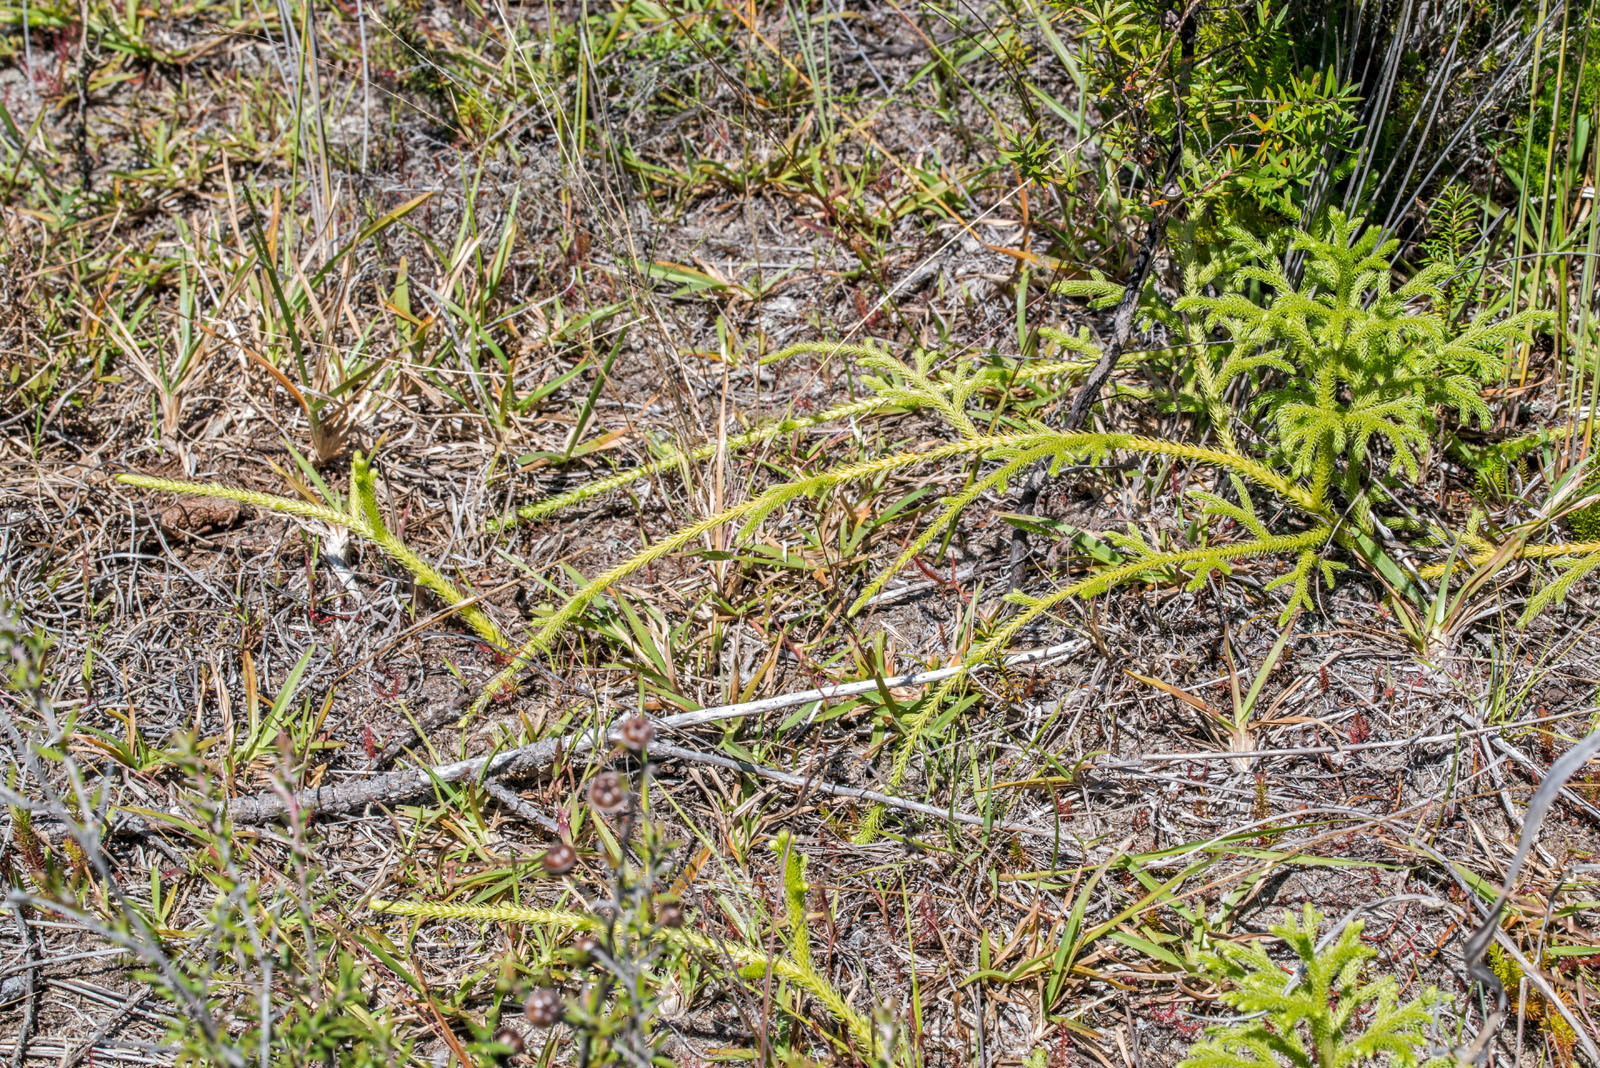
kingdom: Plantae
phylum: Tracheophyta
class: Lycopodiopsida
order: Lycopodiales
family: Lycopodiaceae
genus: Palhinhaea
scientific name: Palhinhaea cernua
